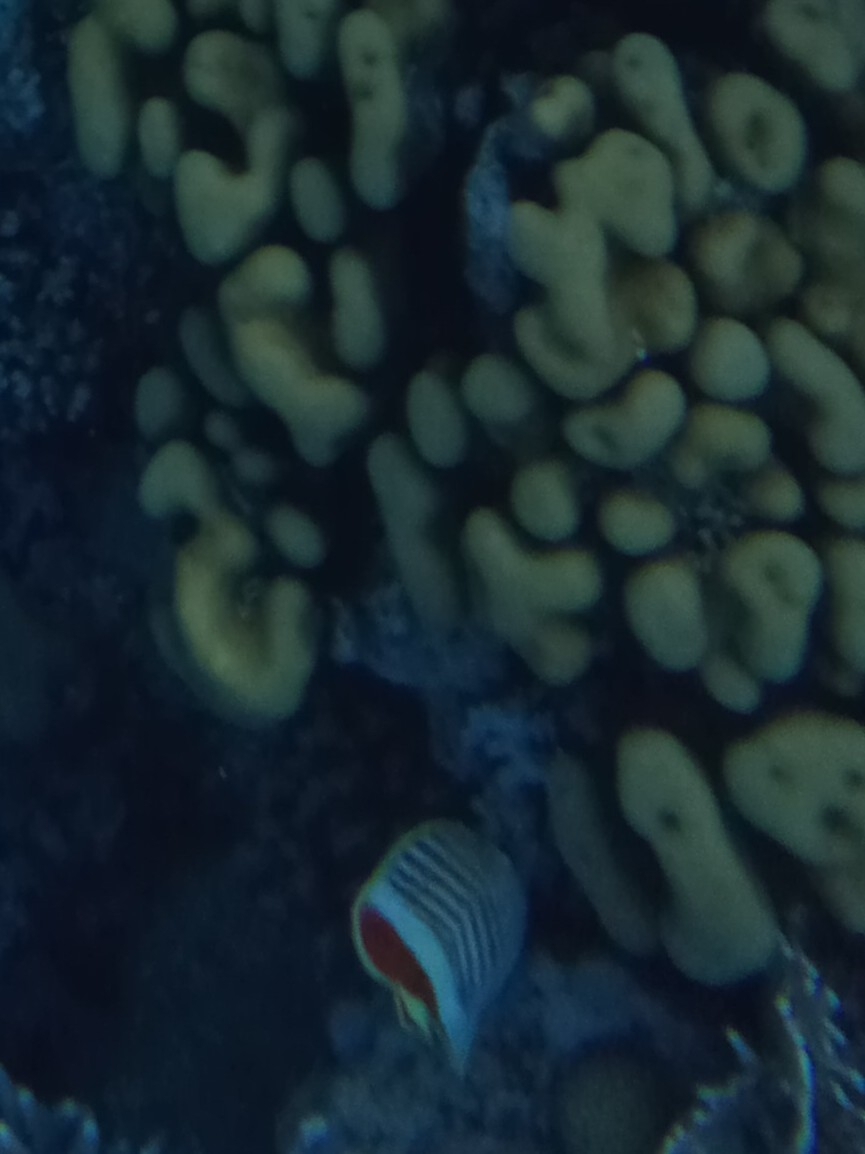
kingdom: Animalia
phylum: Chordata
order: Perciformes
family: Chaetodontidae
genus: Chaetodon
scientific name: Chaetodon paucifasciatus
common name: Crown butterflyfish
